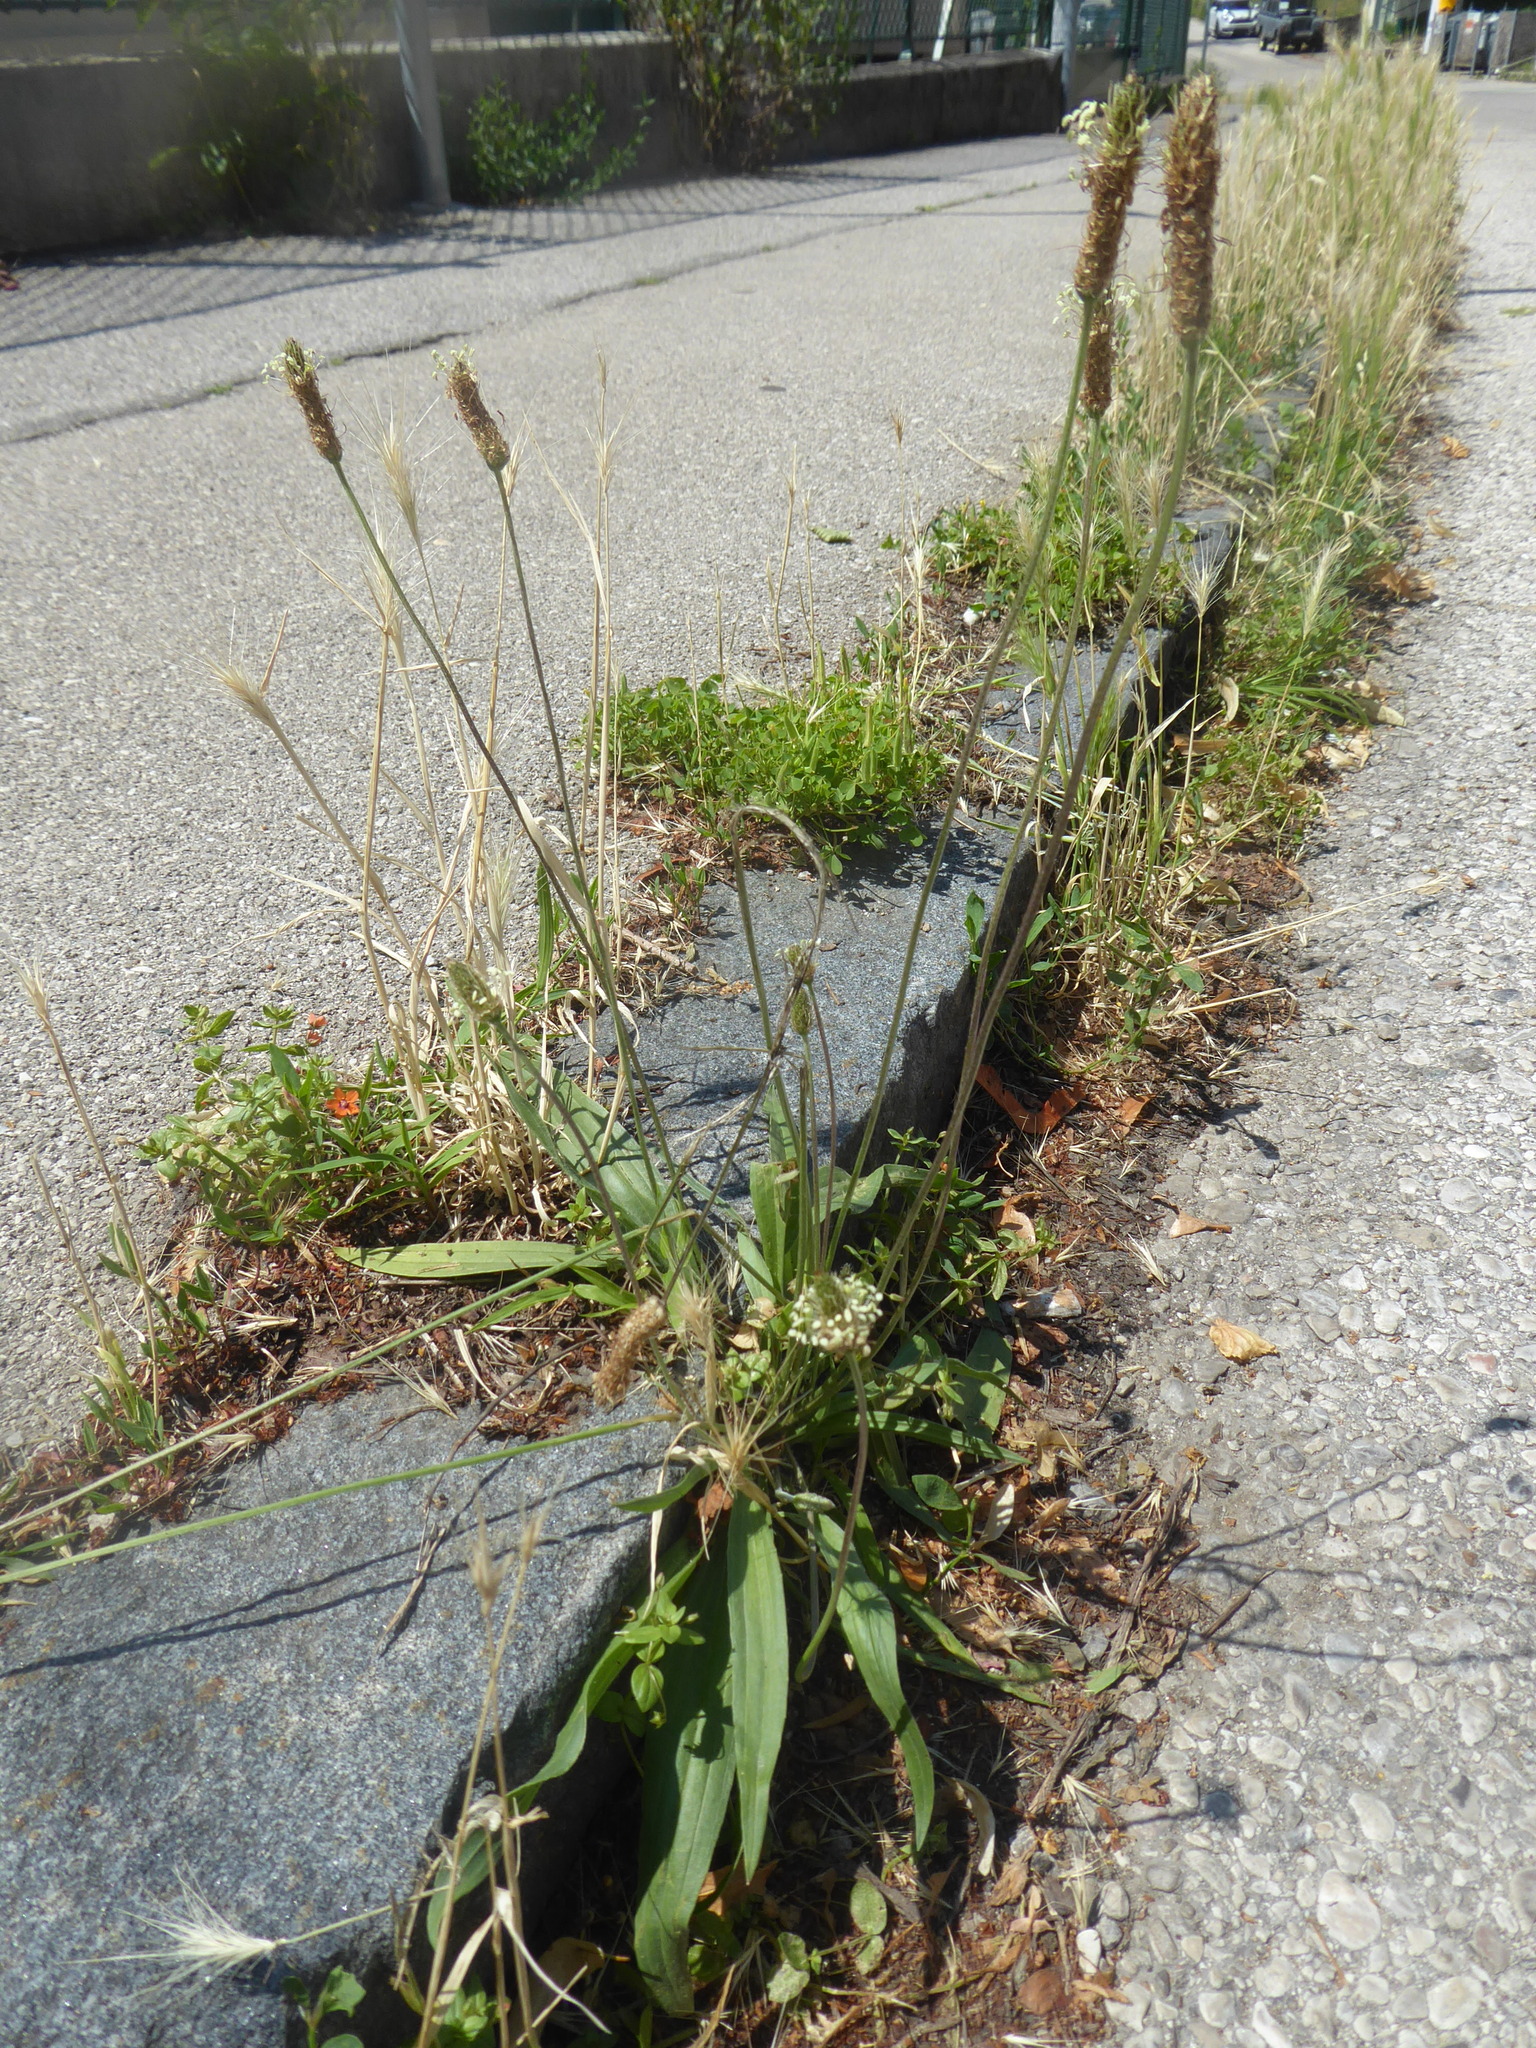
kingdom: Plantae
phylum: Tracheophyta
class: Magnoliopsida
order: Lamiales
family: Plantaginaceae
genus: Plantago
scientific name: Plantago lanceolata
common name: Ribwort plantain
